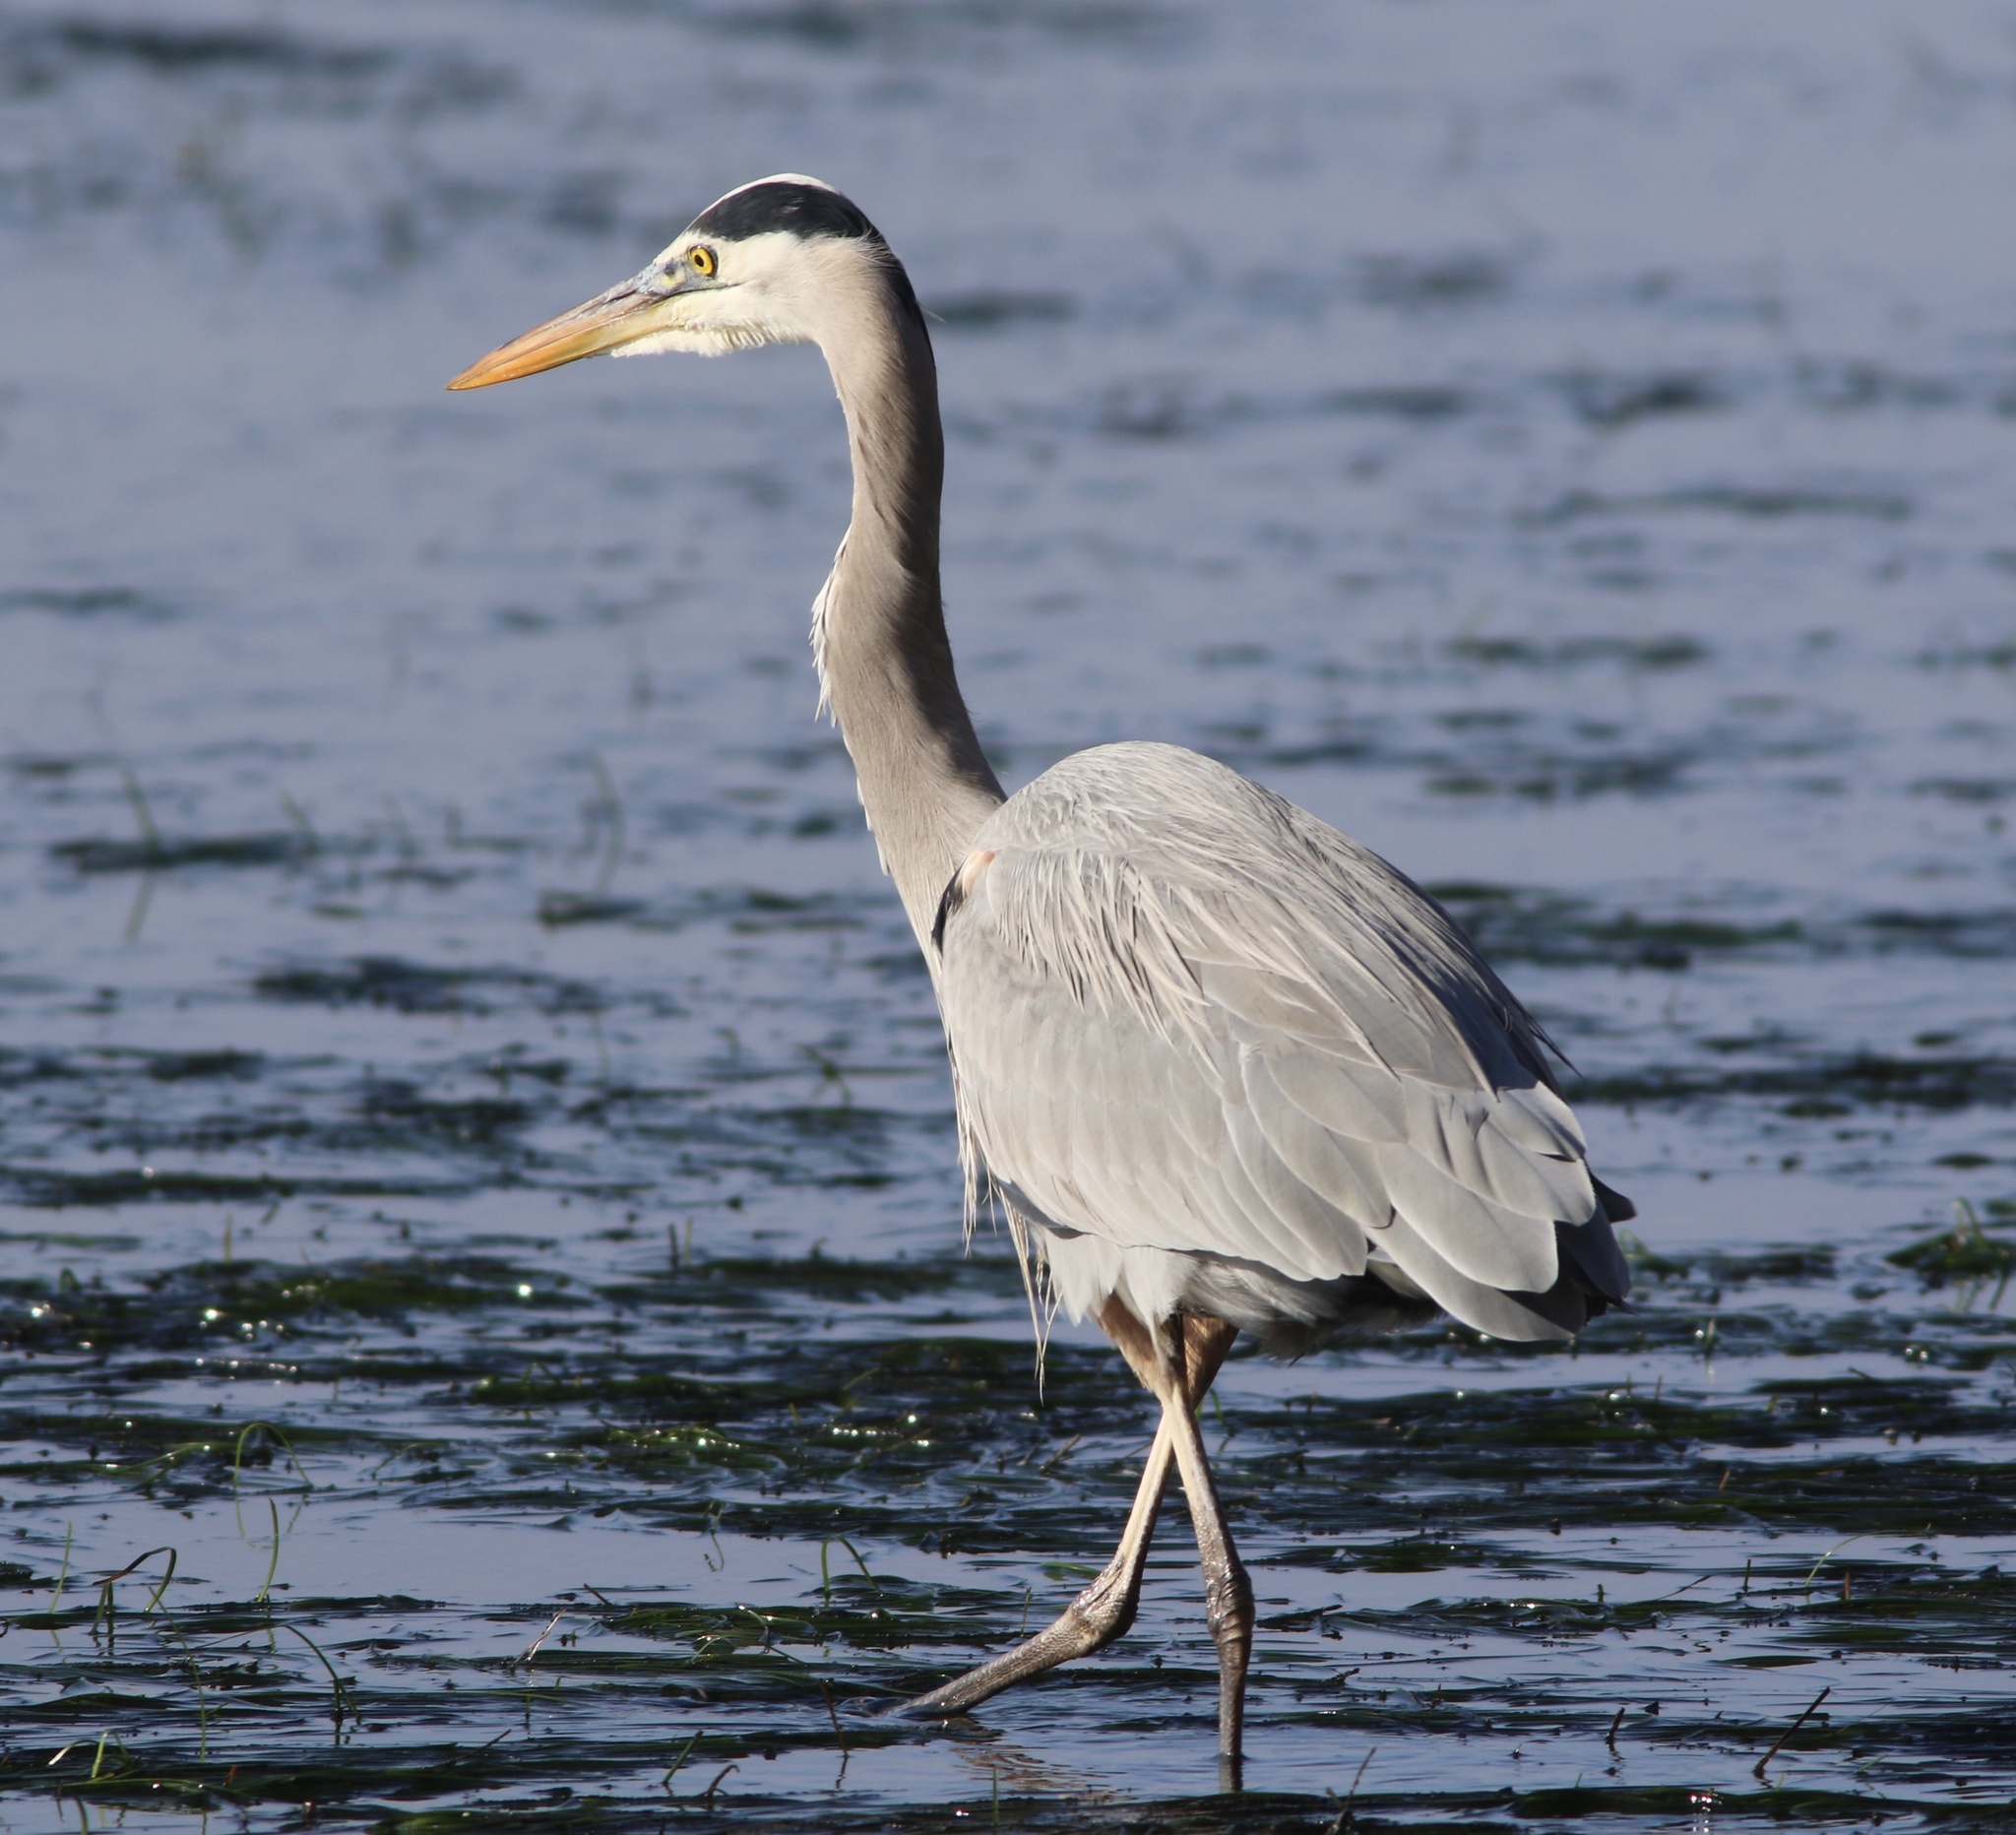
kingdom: Animalia
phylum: Chordata
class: Aves
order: Pelecaniformes
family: Ardeidae
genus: Ardea
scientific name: Ardea herodias
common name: Great blue heron
